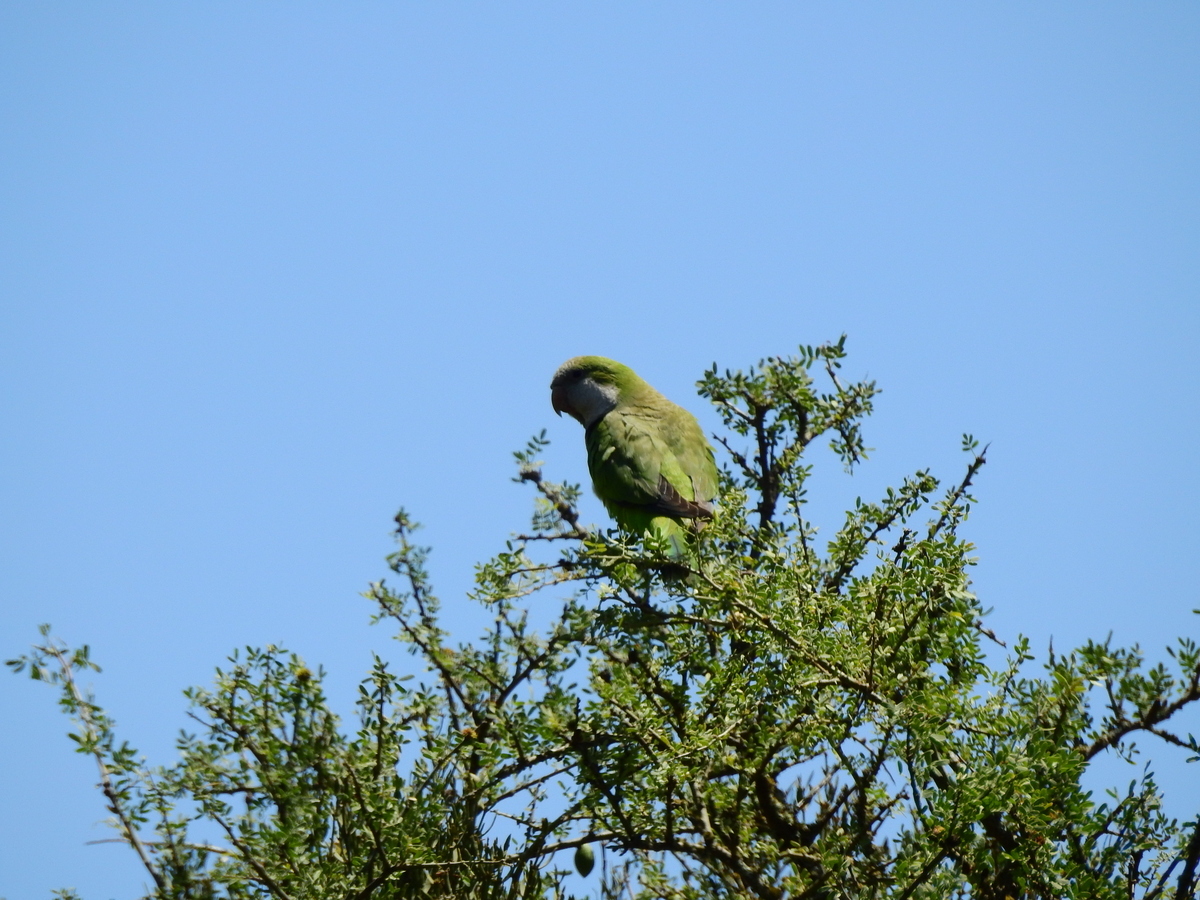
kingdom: Animalia
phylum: Chordata
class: Aves
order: Psittaciformes
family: Psittacidae
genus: Myiopsitta
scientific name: Myiopsitta monachus
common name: Monk parakeet
